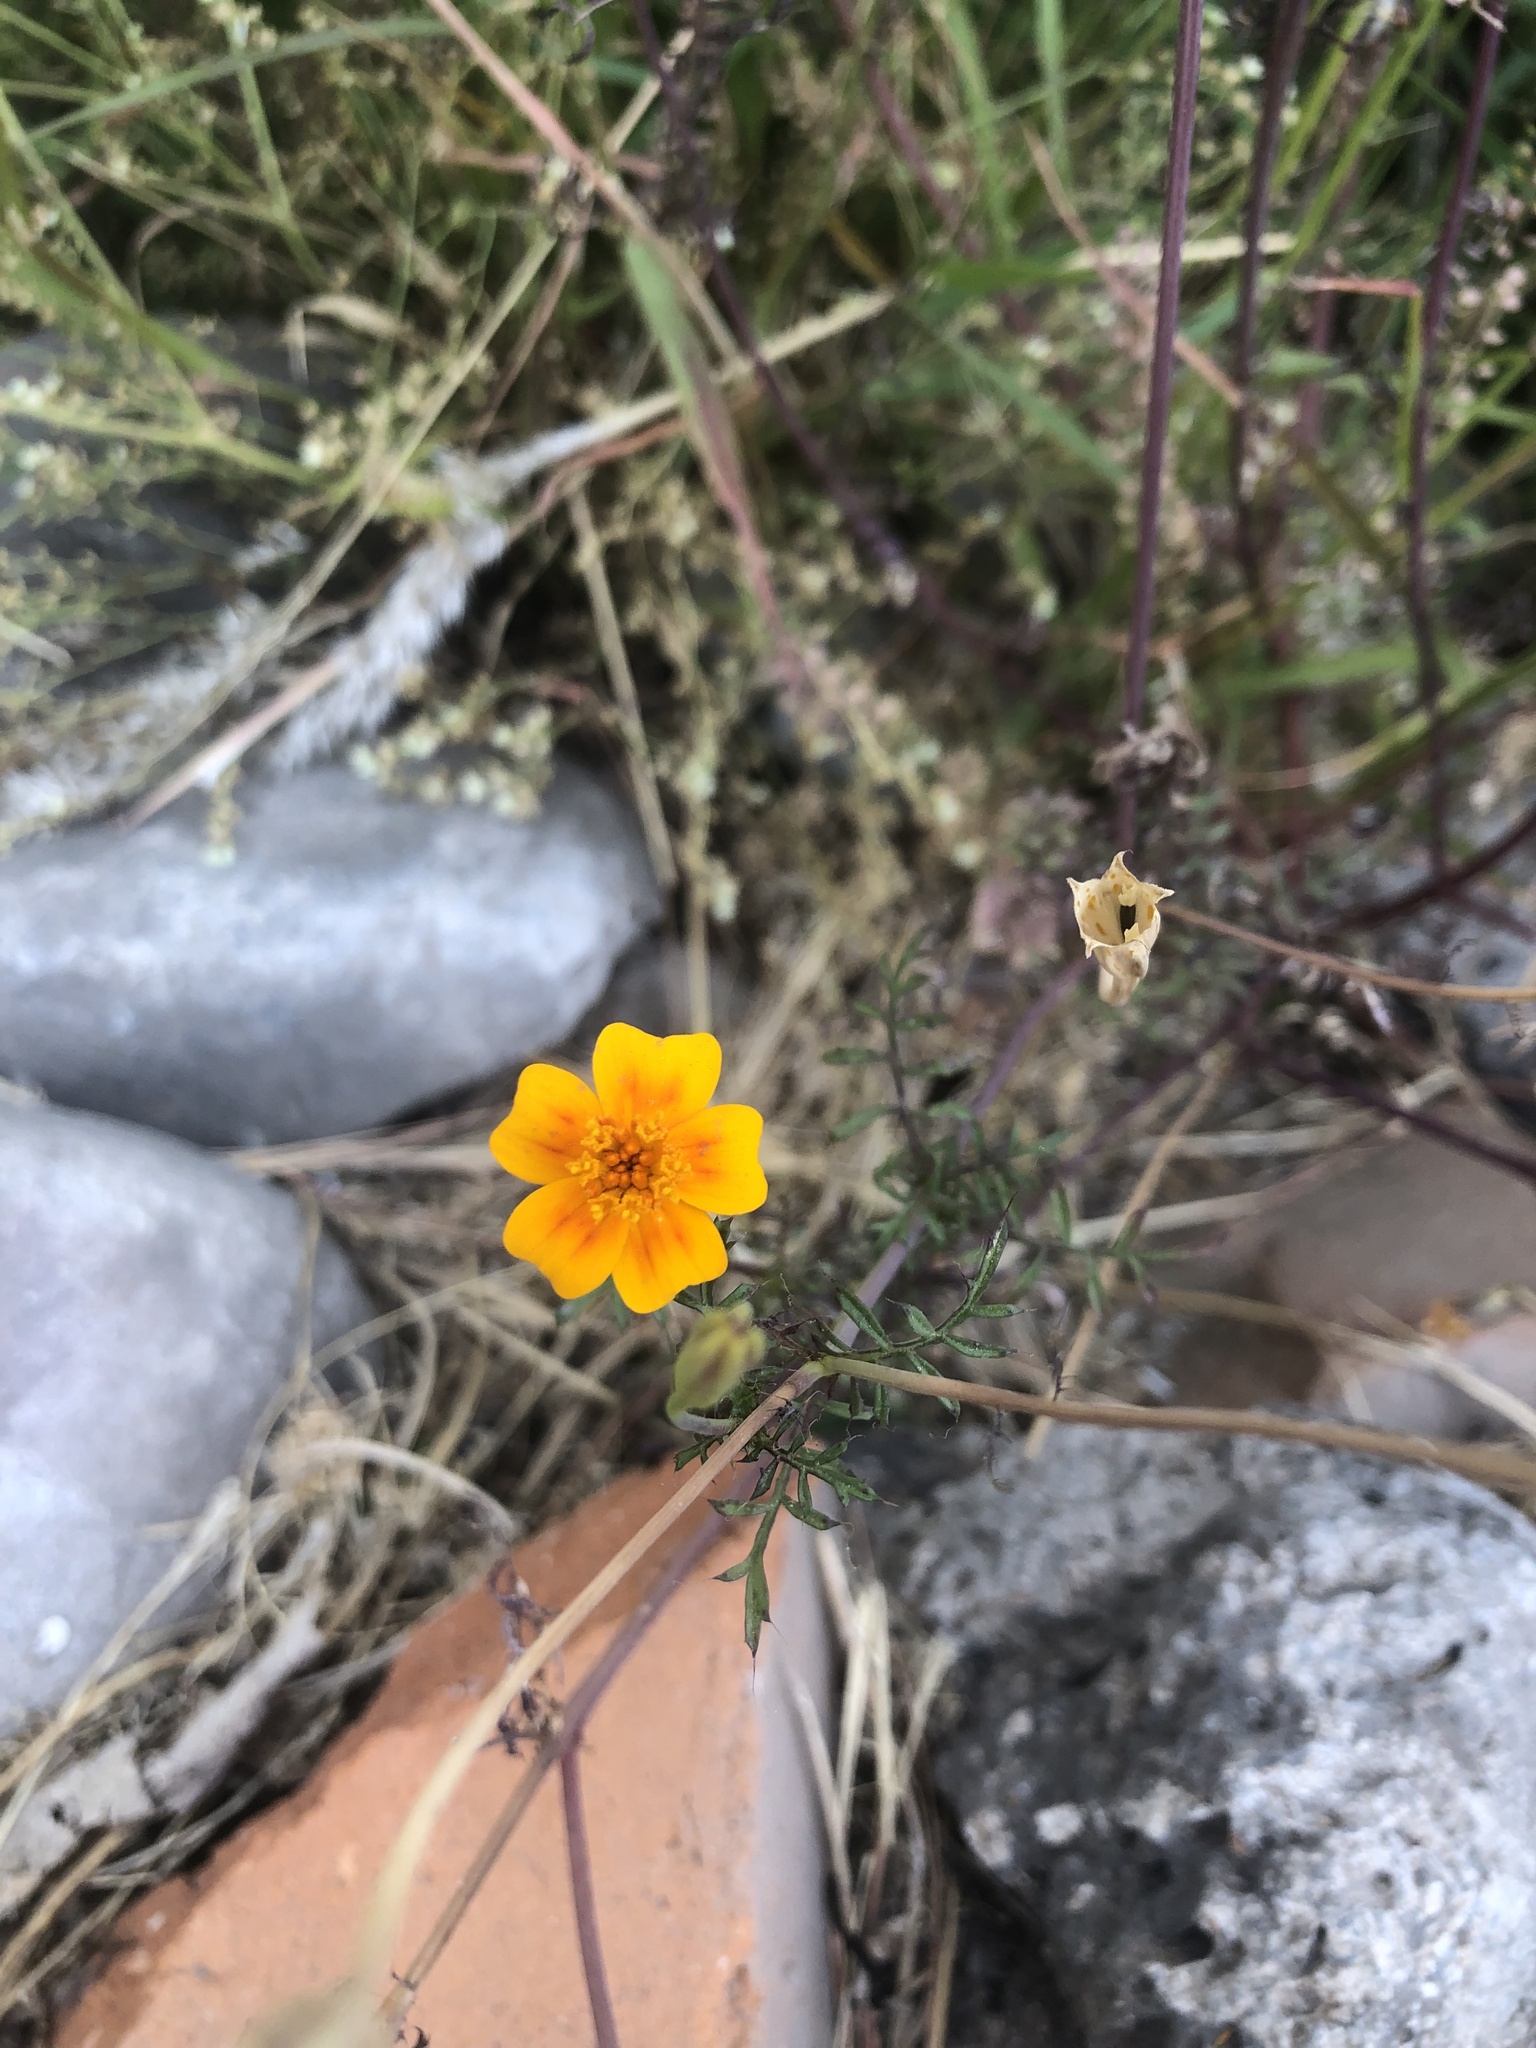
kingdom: Plantae
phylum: Tracheophyta
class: Magnoliopsida
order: Asterales
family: Asteraceae
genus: Tagetes
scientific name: Tagetes lunulata
